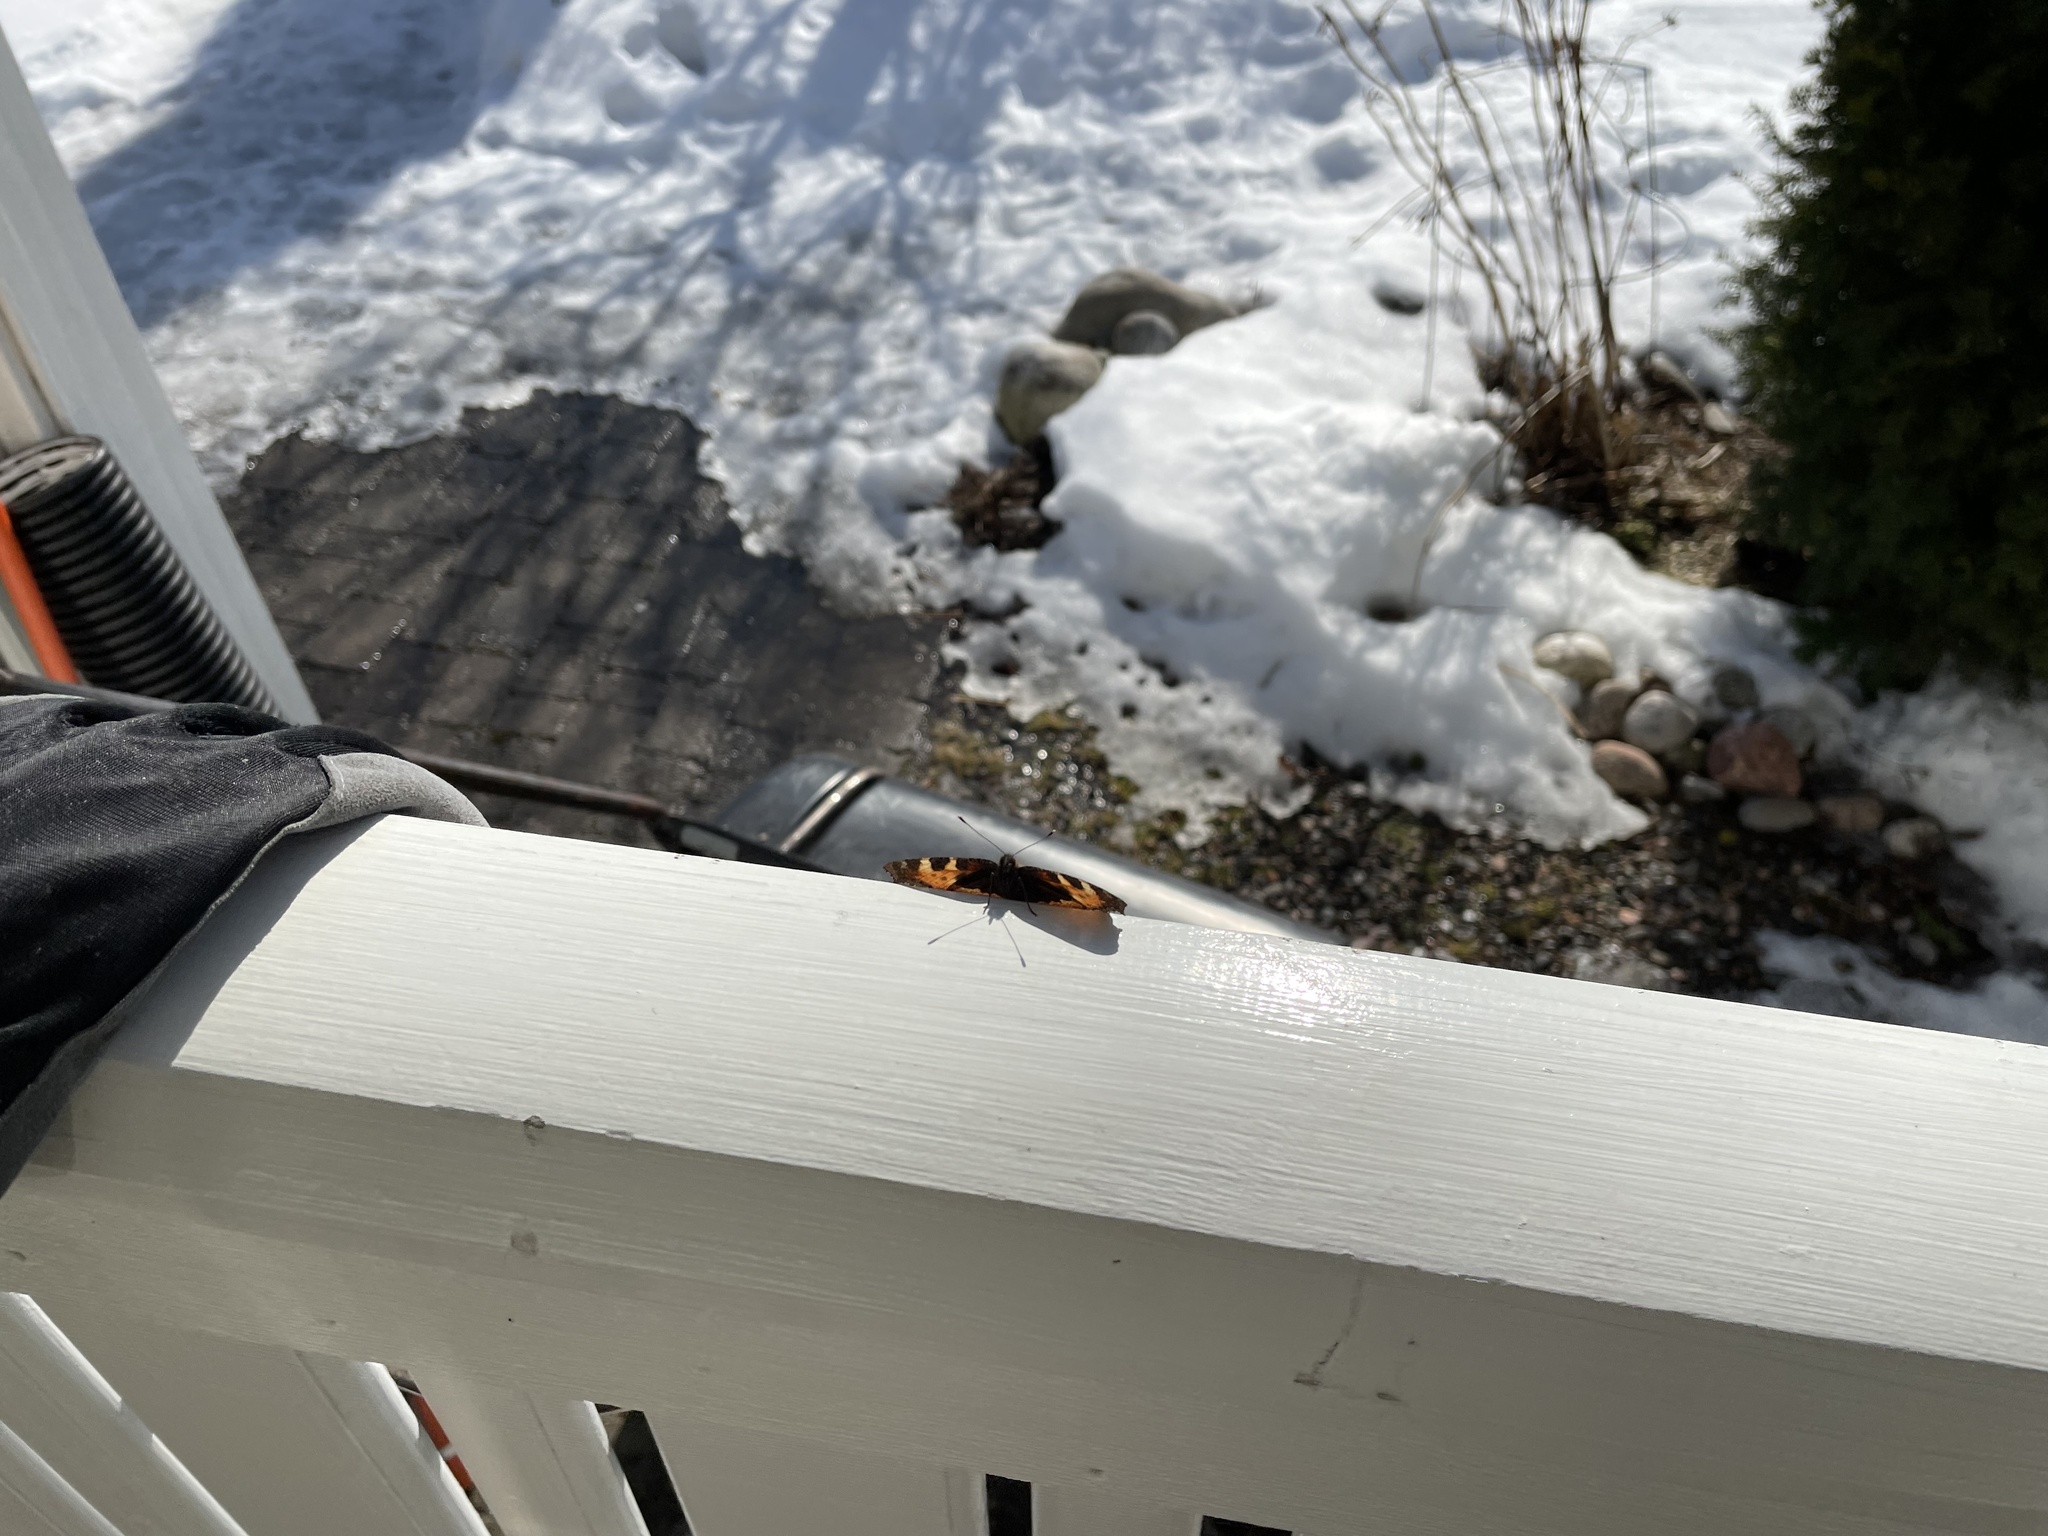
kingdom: Animalia
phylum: Arthropoda
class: Insecta
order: Lepidoptera
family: Nymphalidae
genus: Aglais
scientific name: Aglais urticae
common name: Small tortoiseshell
